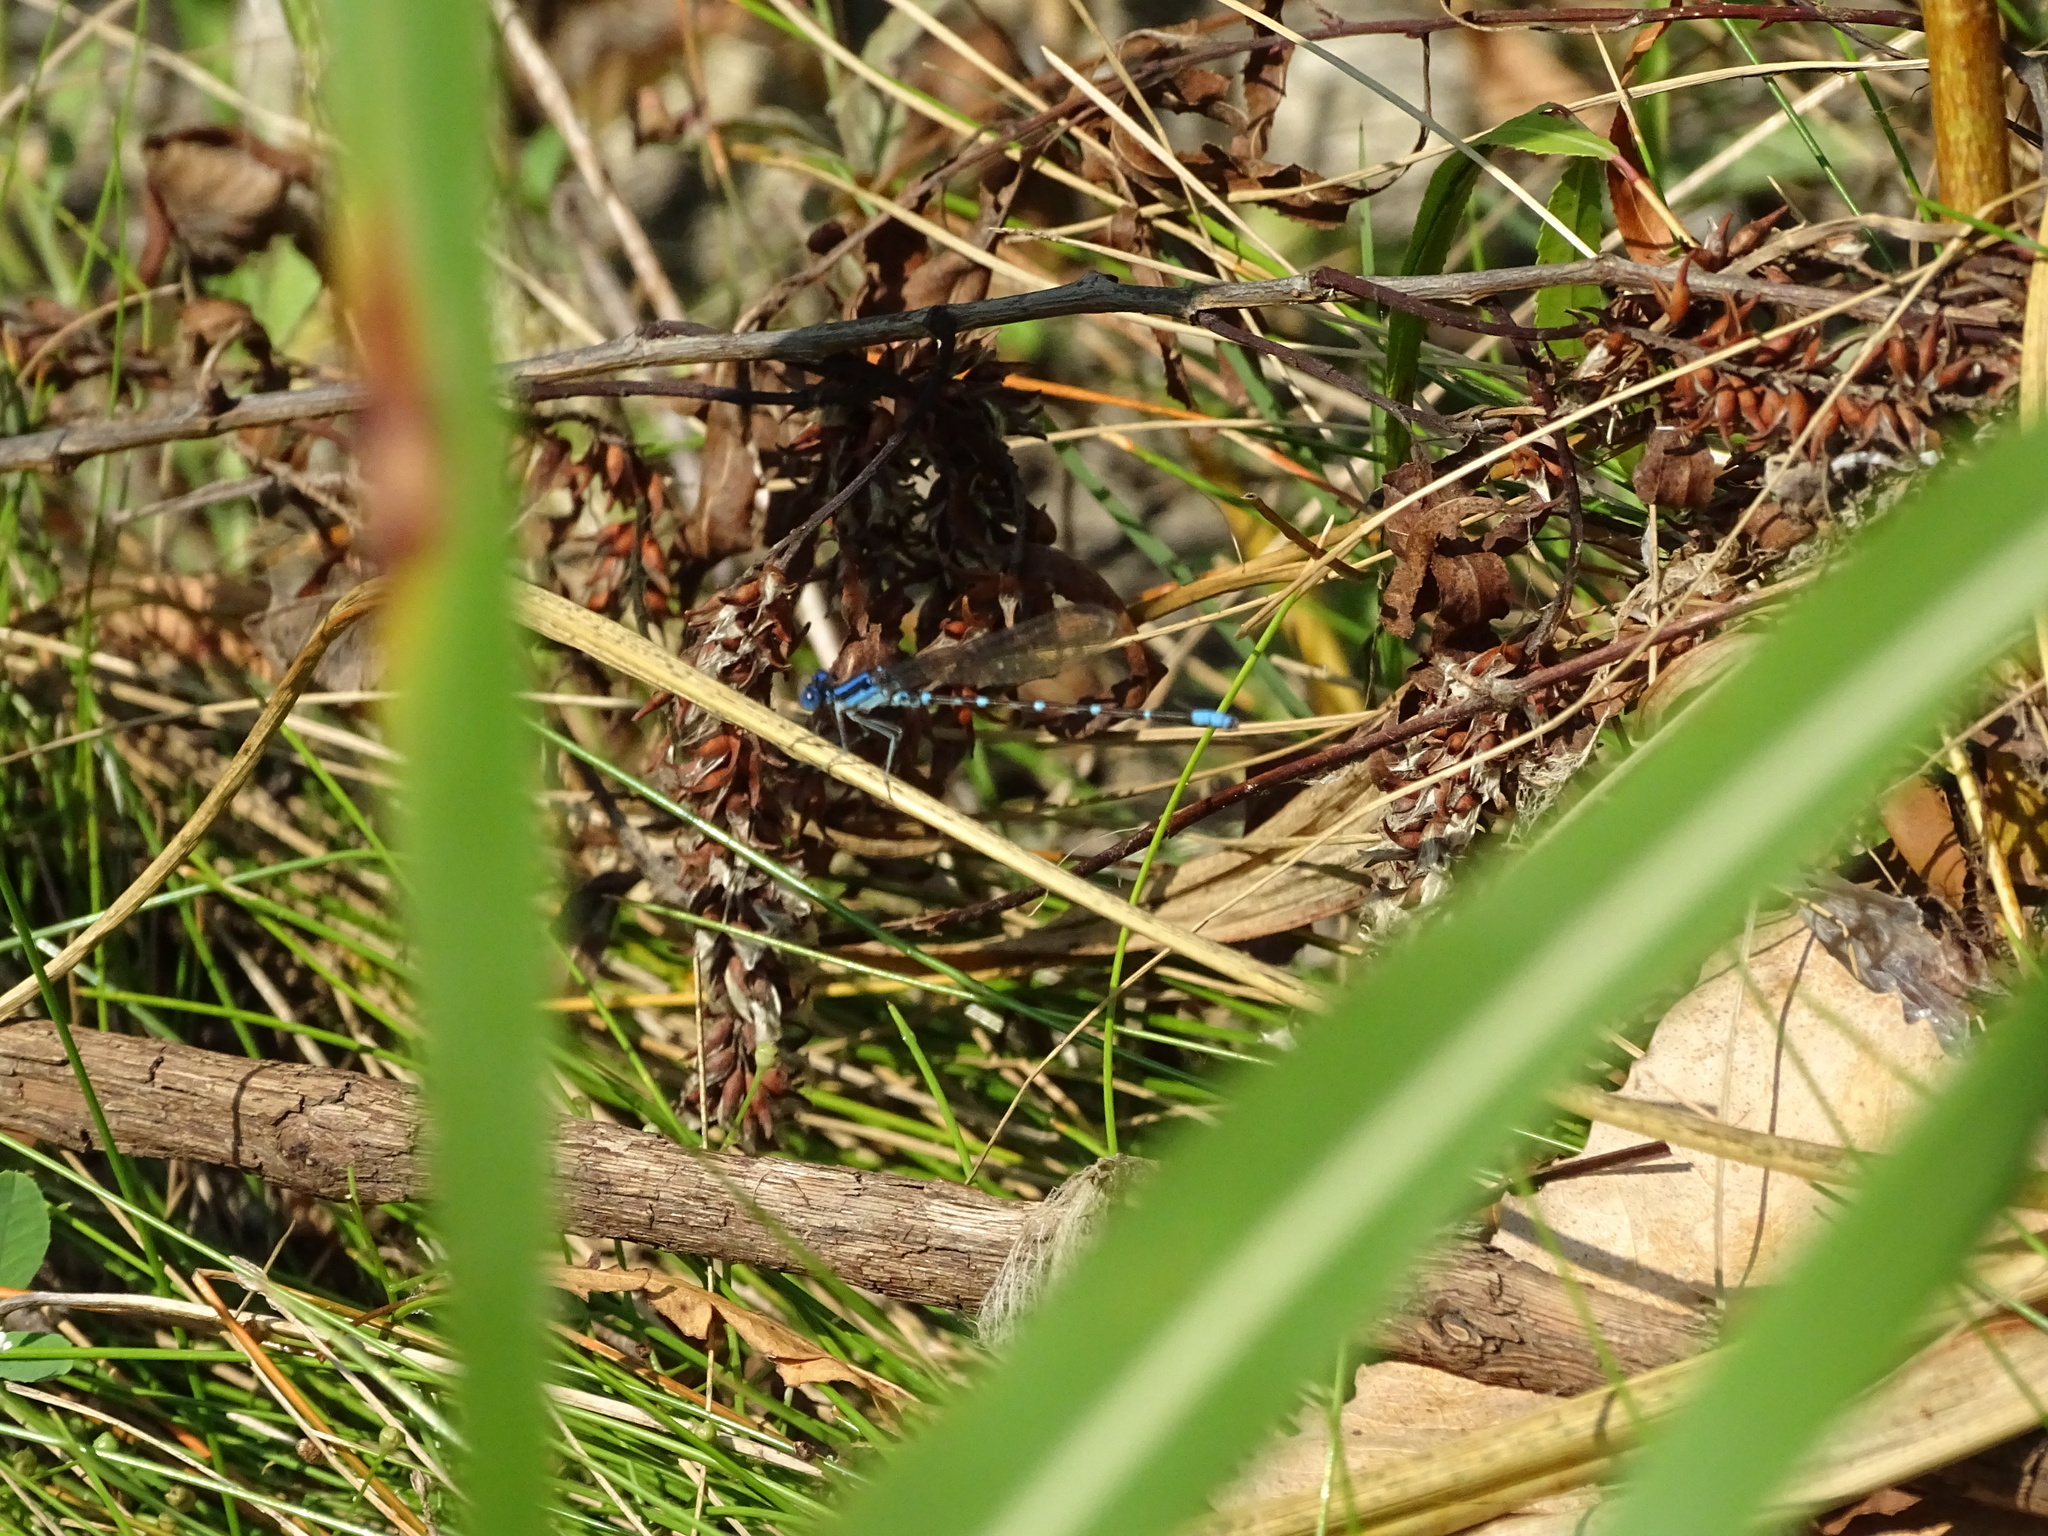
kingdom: Animalia
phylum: Arthropoda
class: Insecta
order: Odonata
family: Coenagrionidae
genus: Argia
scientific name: Argia sedula
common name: Blue-ringed dancer
